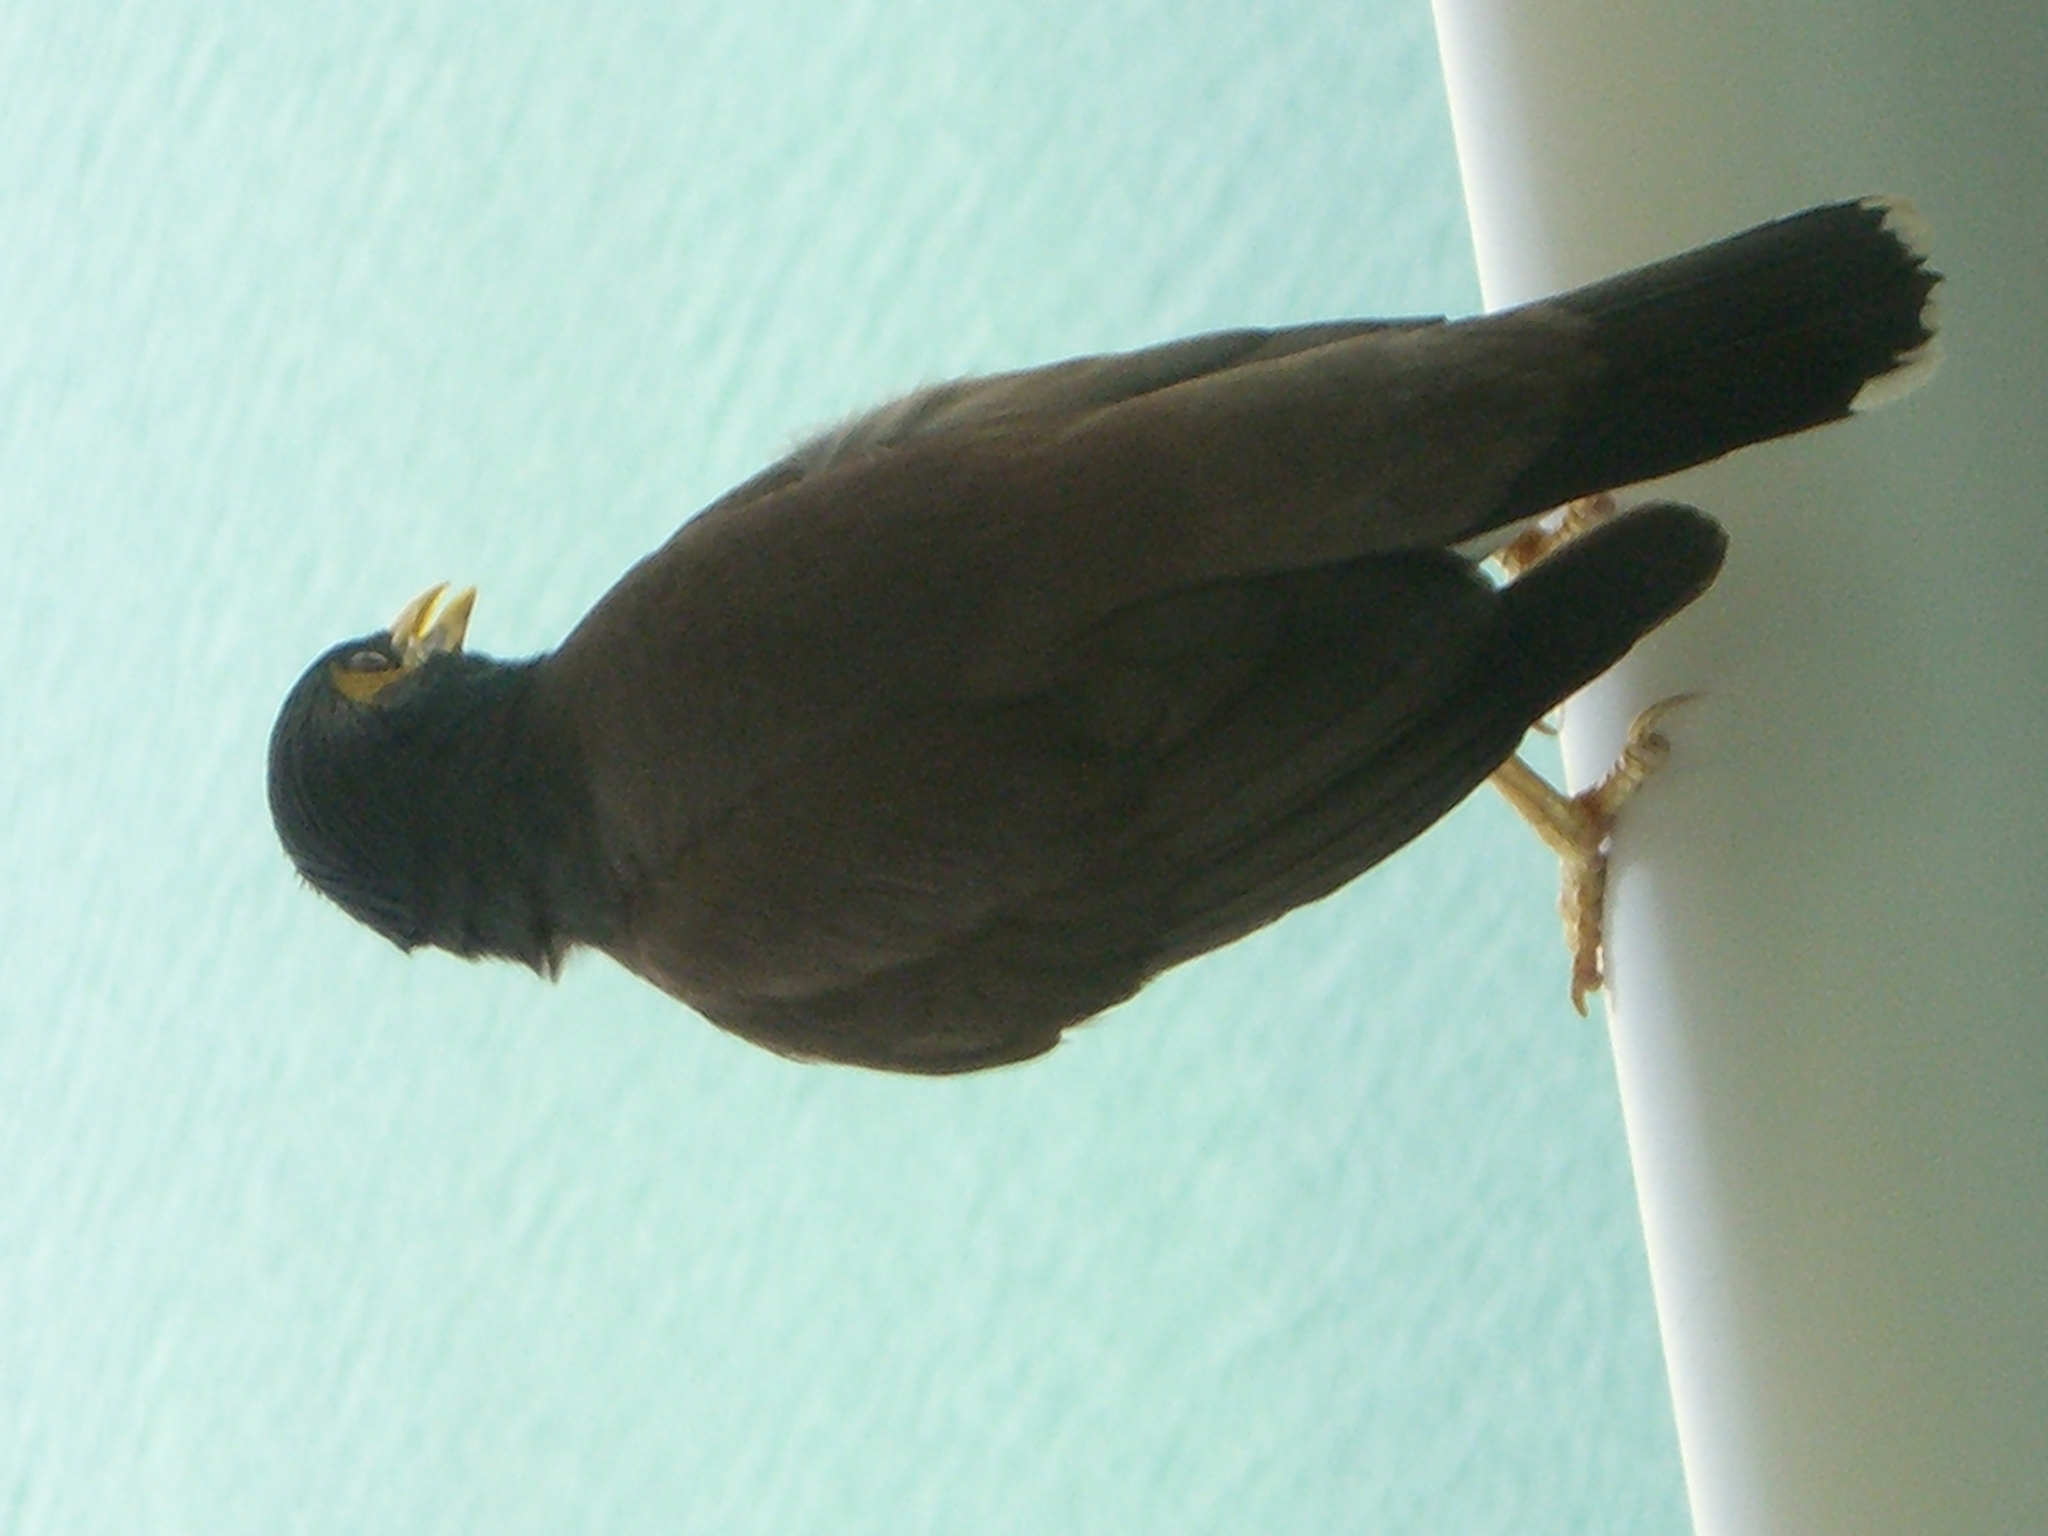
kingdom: Animalia
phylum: Chordata
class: Aves
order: Passeriformes
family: Sturnidae
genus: Acridotheres
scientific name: Acridotheres tristis
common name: Common myna
